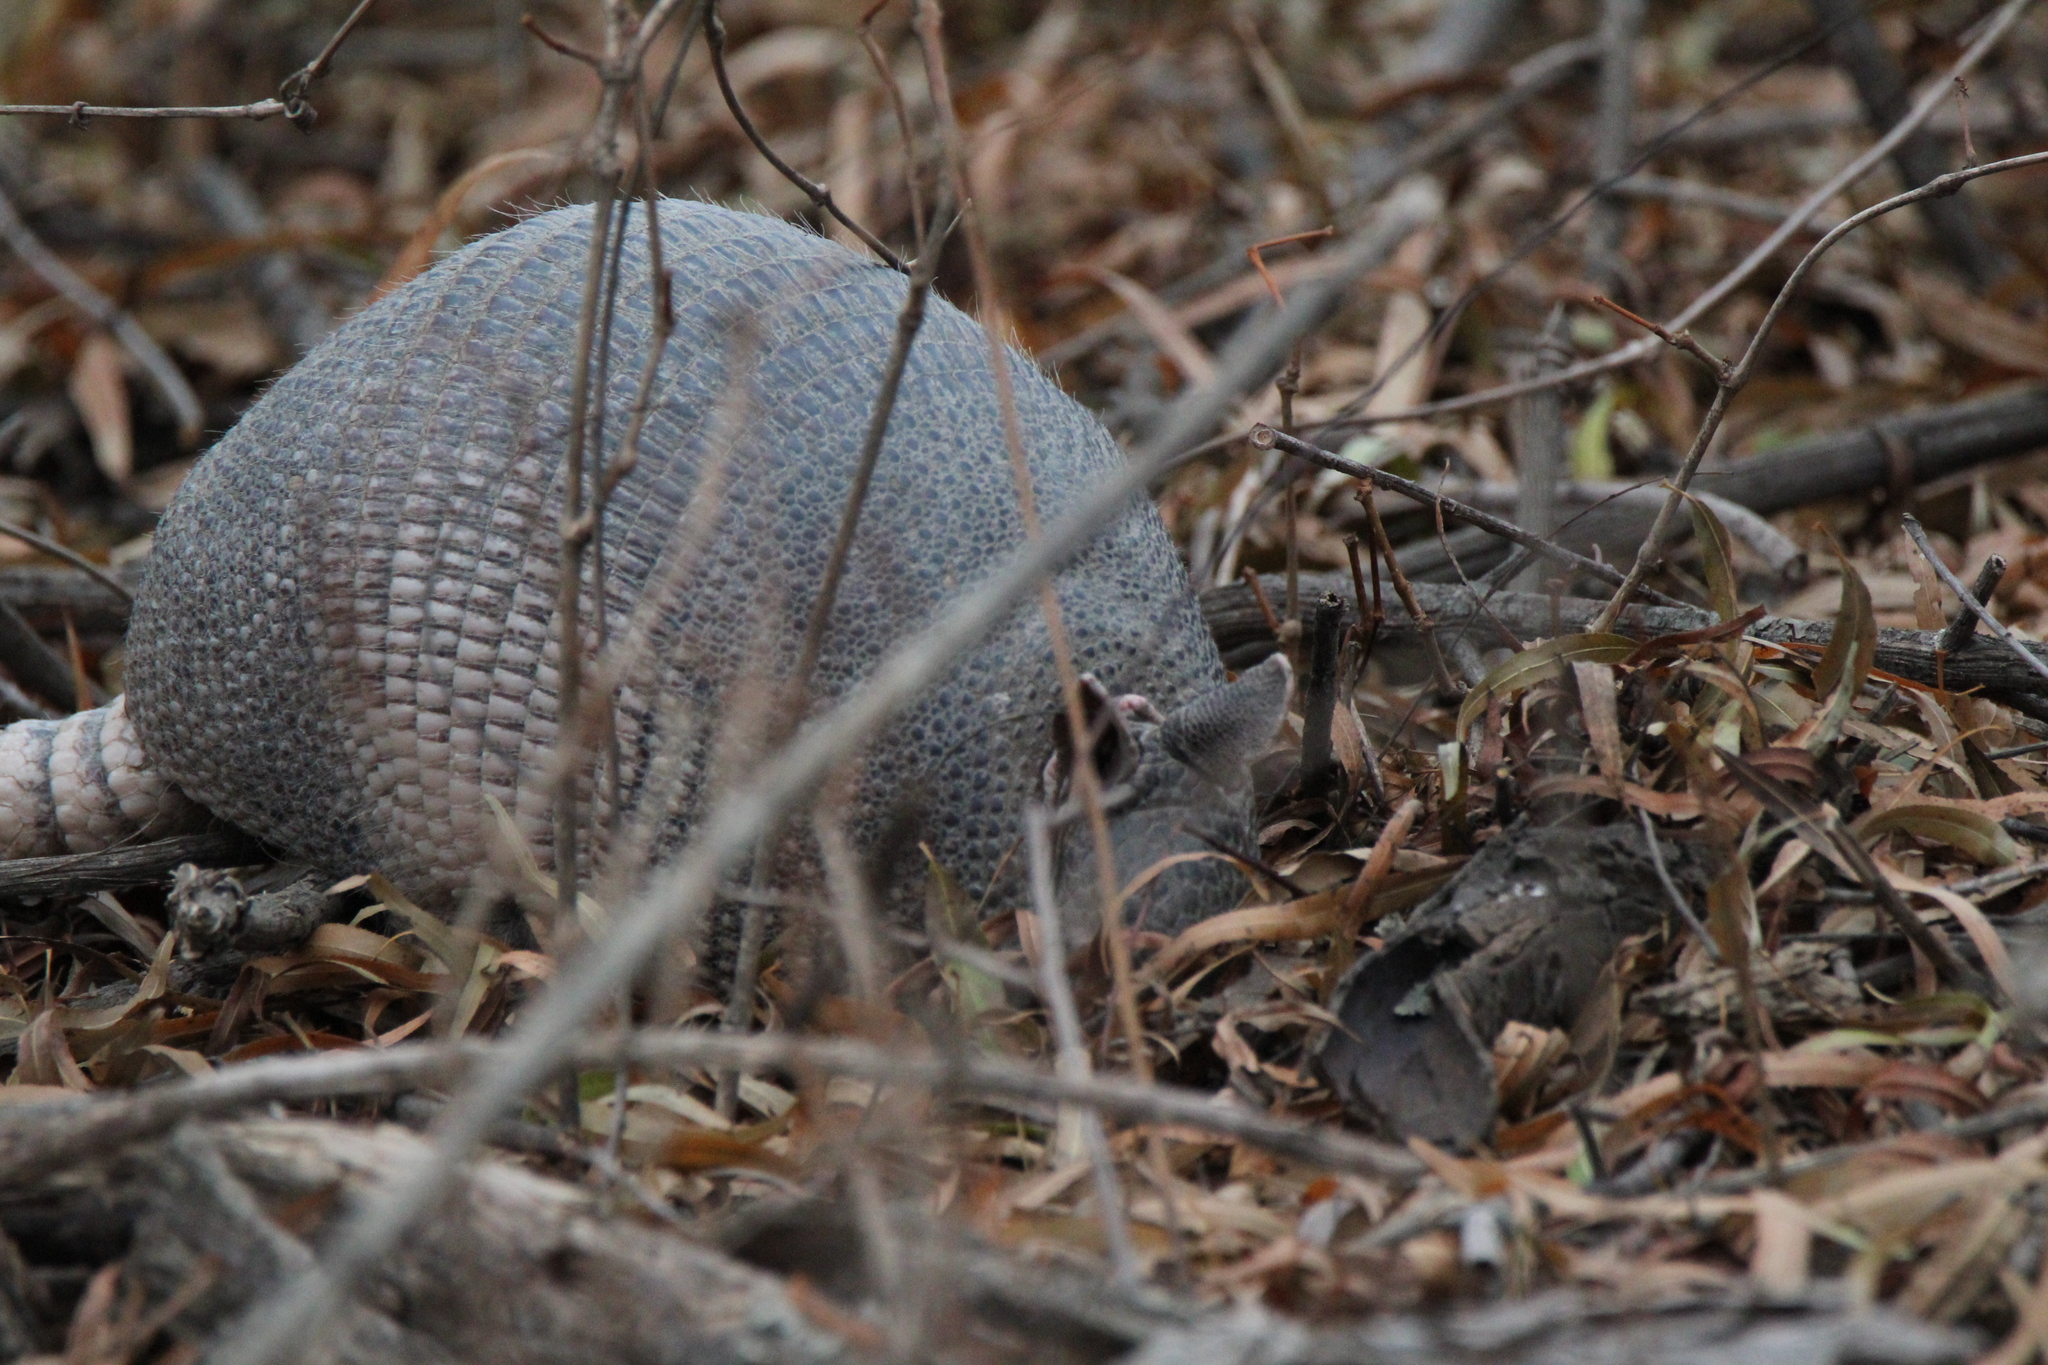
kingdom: Animalia
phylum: Chordata
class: Mammalia
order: Cingulata
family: Dasypodidae
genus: Dasypus
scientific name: Dasypus novemcinctus
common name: Nine-banded armadillo
